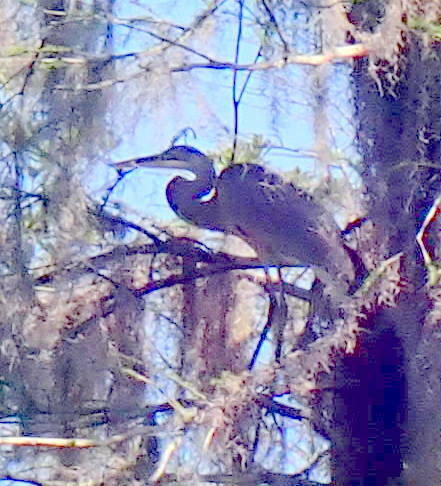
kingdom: Animalia
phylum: Chordata
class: Aves
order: Pelecaniformes
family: Ardeidae
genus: Ardea
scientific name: Ardea herodias
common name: Great blue heron
